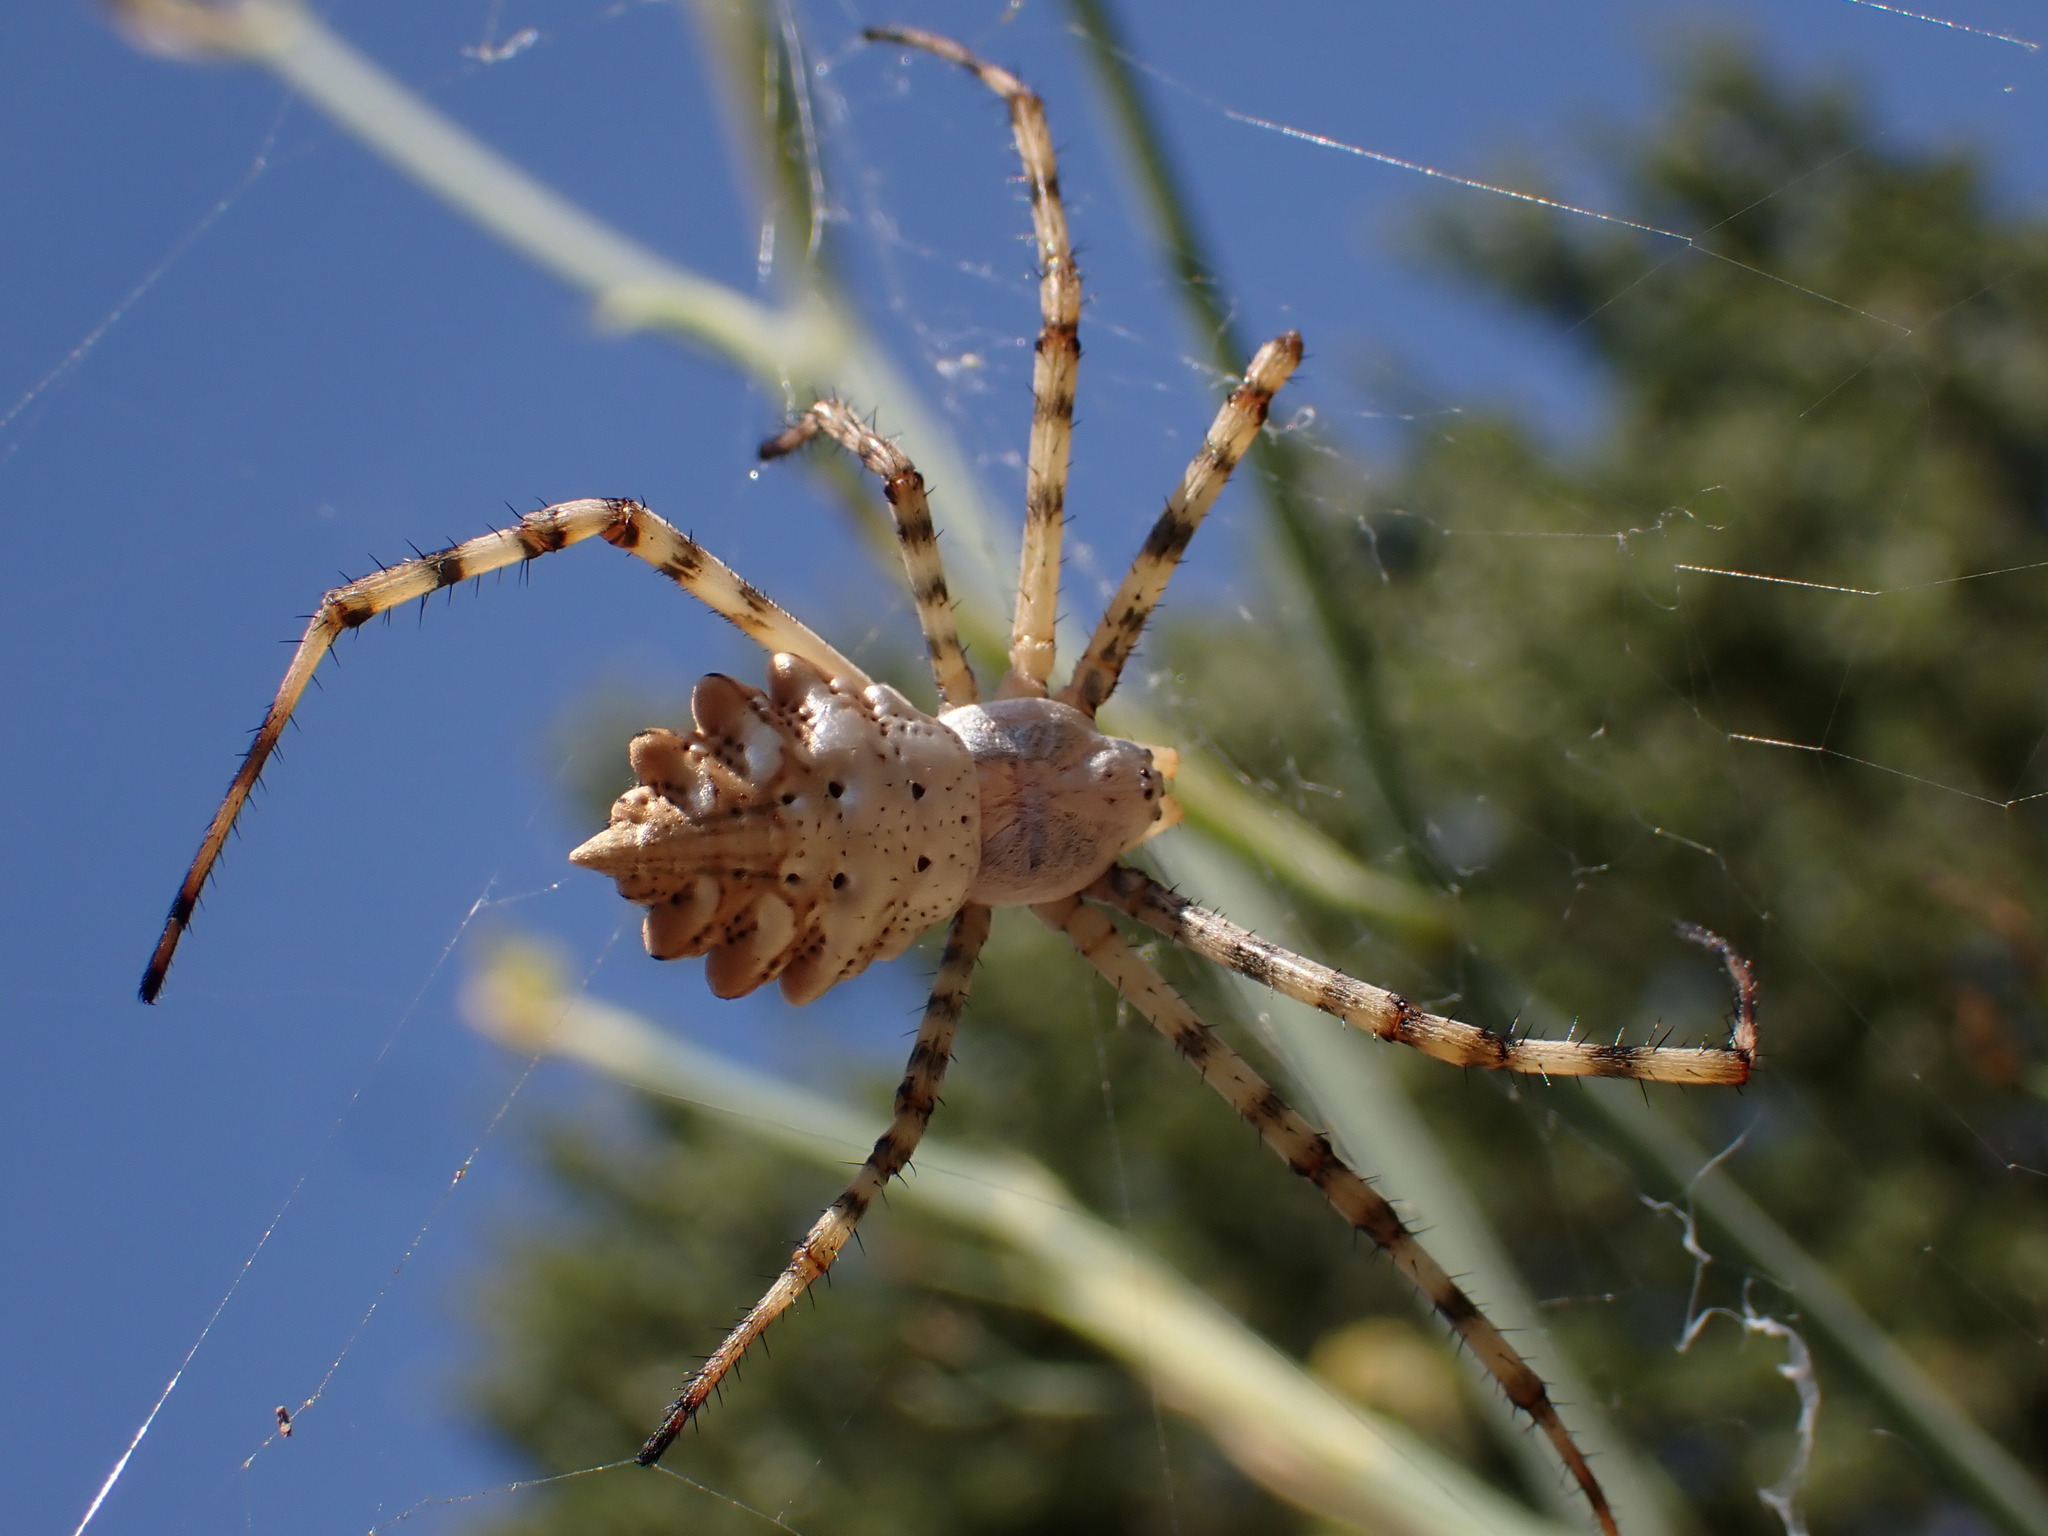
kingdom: Animalia
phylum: Arthropoda
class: Arachnida
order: Araneae
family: Araneidae
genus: Argiope
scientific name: Argiope lobata
